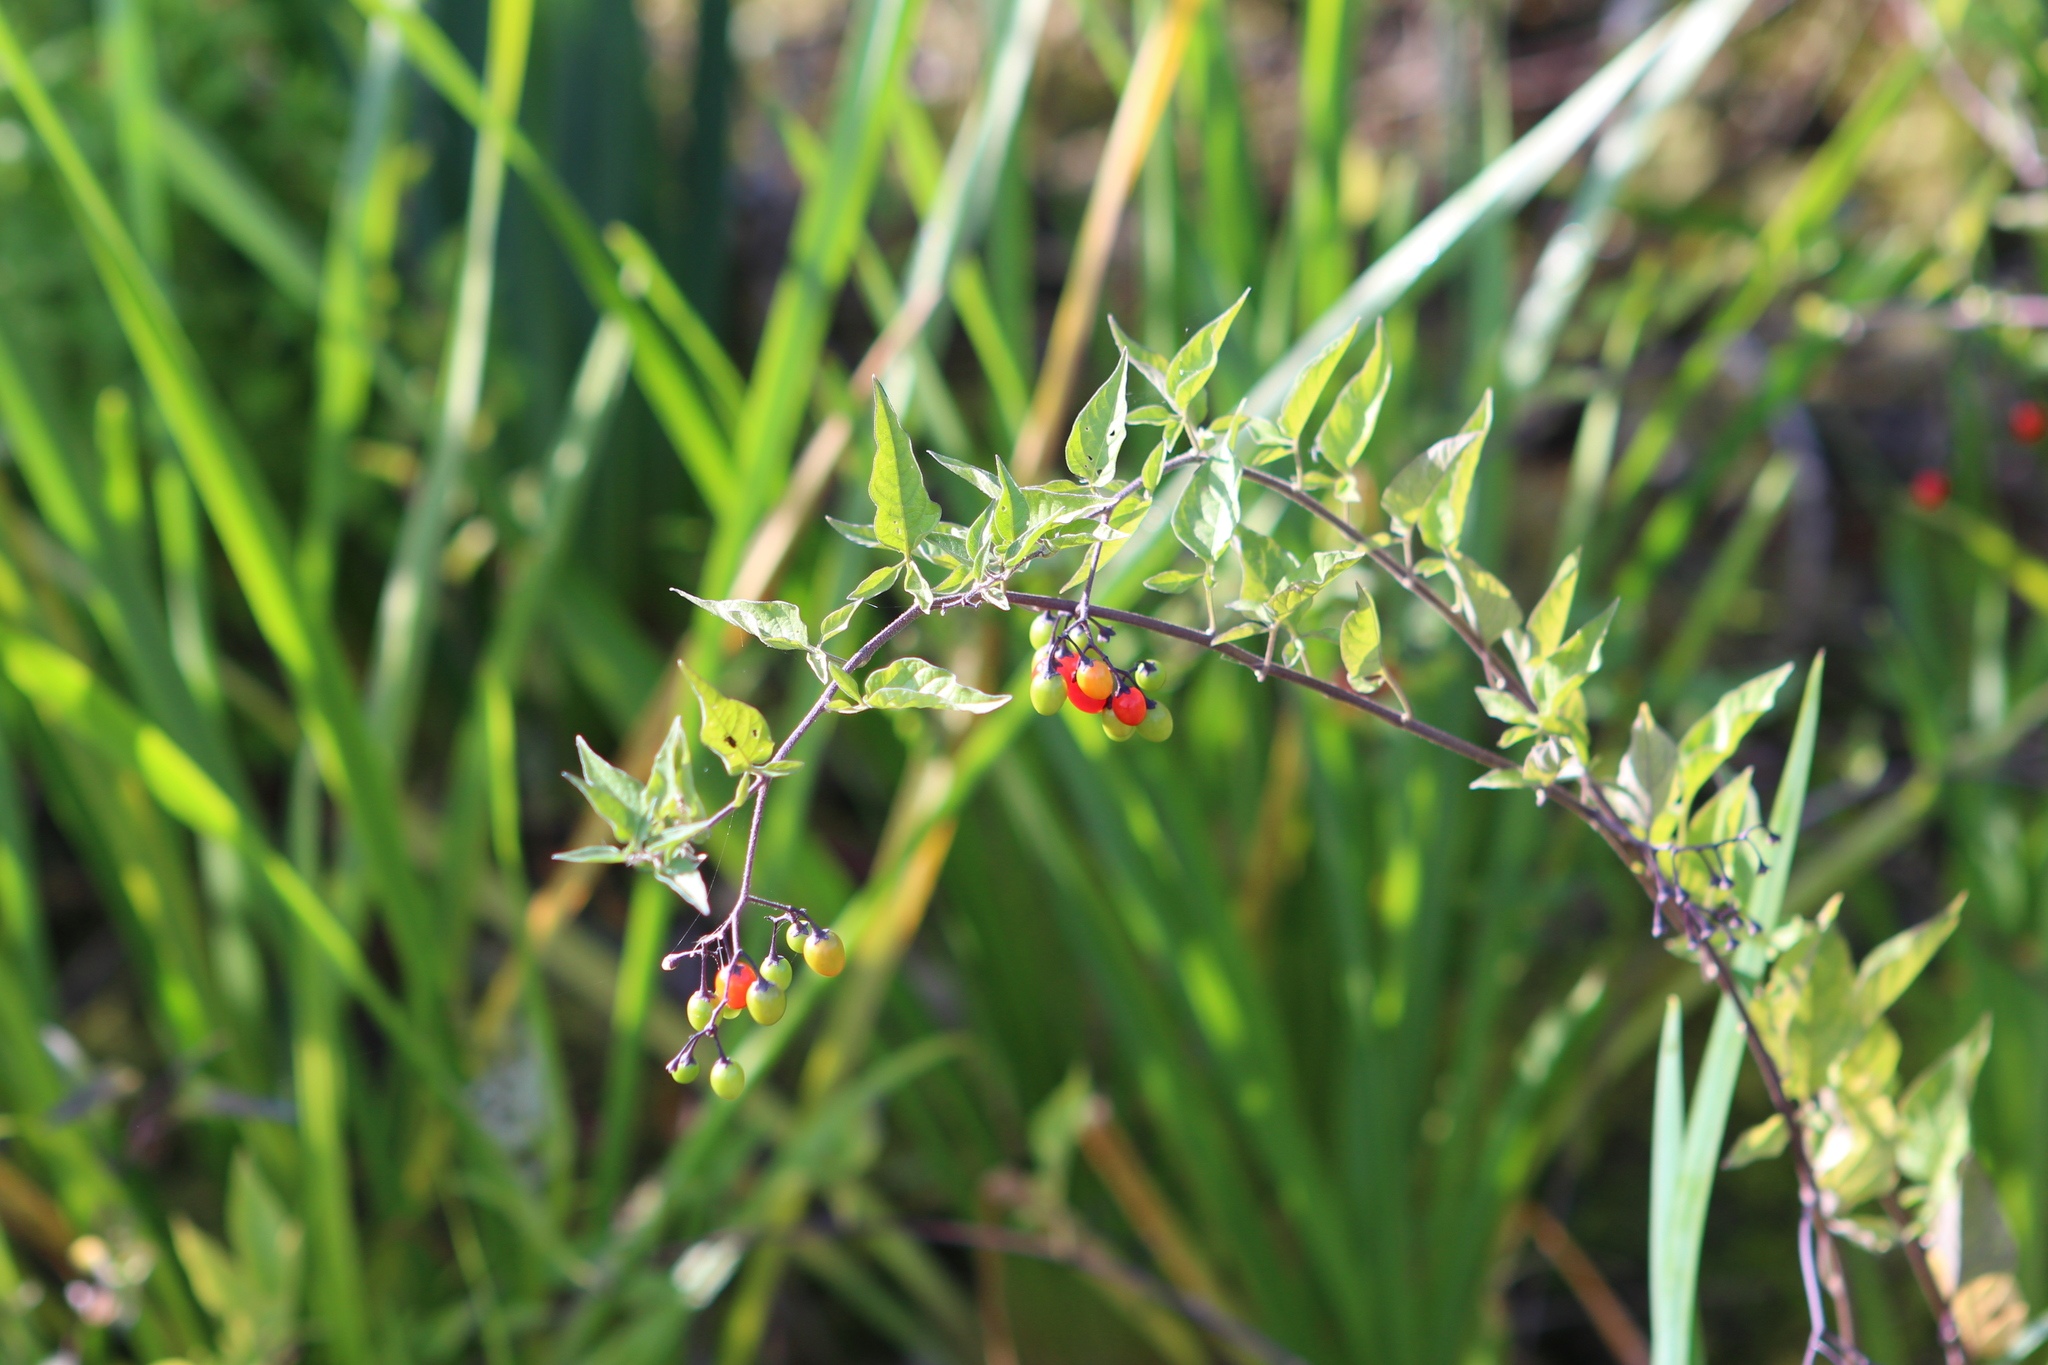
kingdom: Plantae
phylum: Tracheophyta
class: Magnoliopsida
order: Solanales
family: Solanaceae
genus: Solanum
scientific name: Solanum dulcamara
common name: Climbing nightshade
